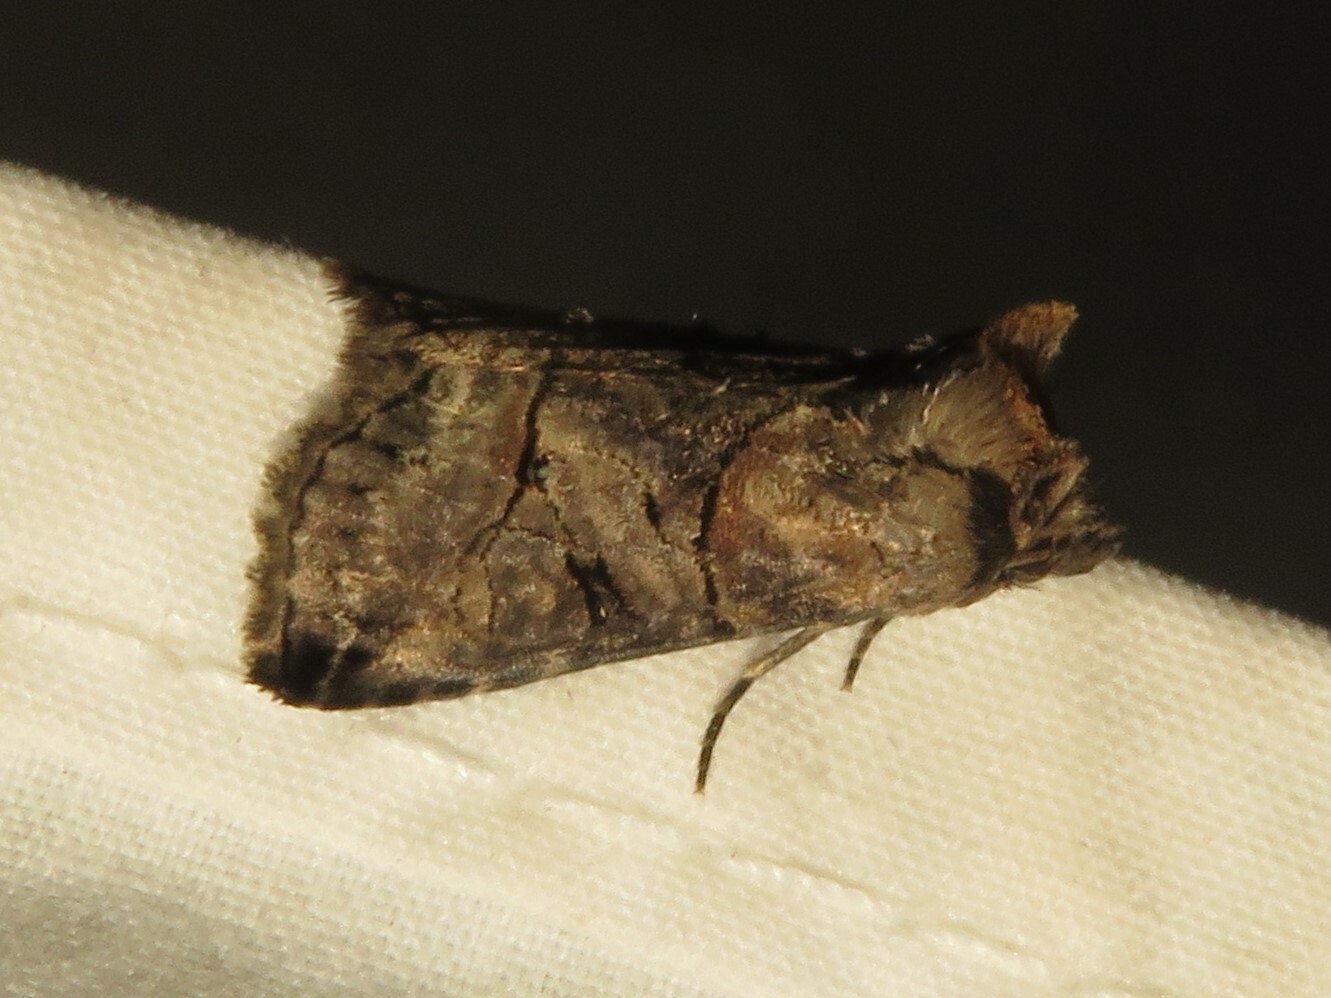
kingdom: Animalia
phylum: Arthropoda
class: Insecta
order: Lepidoptera
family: Noctuidae
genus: Abrostola
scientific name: Abrostola urentis
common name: Spectacled nettle moth
